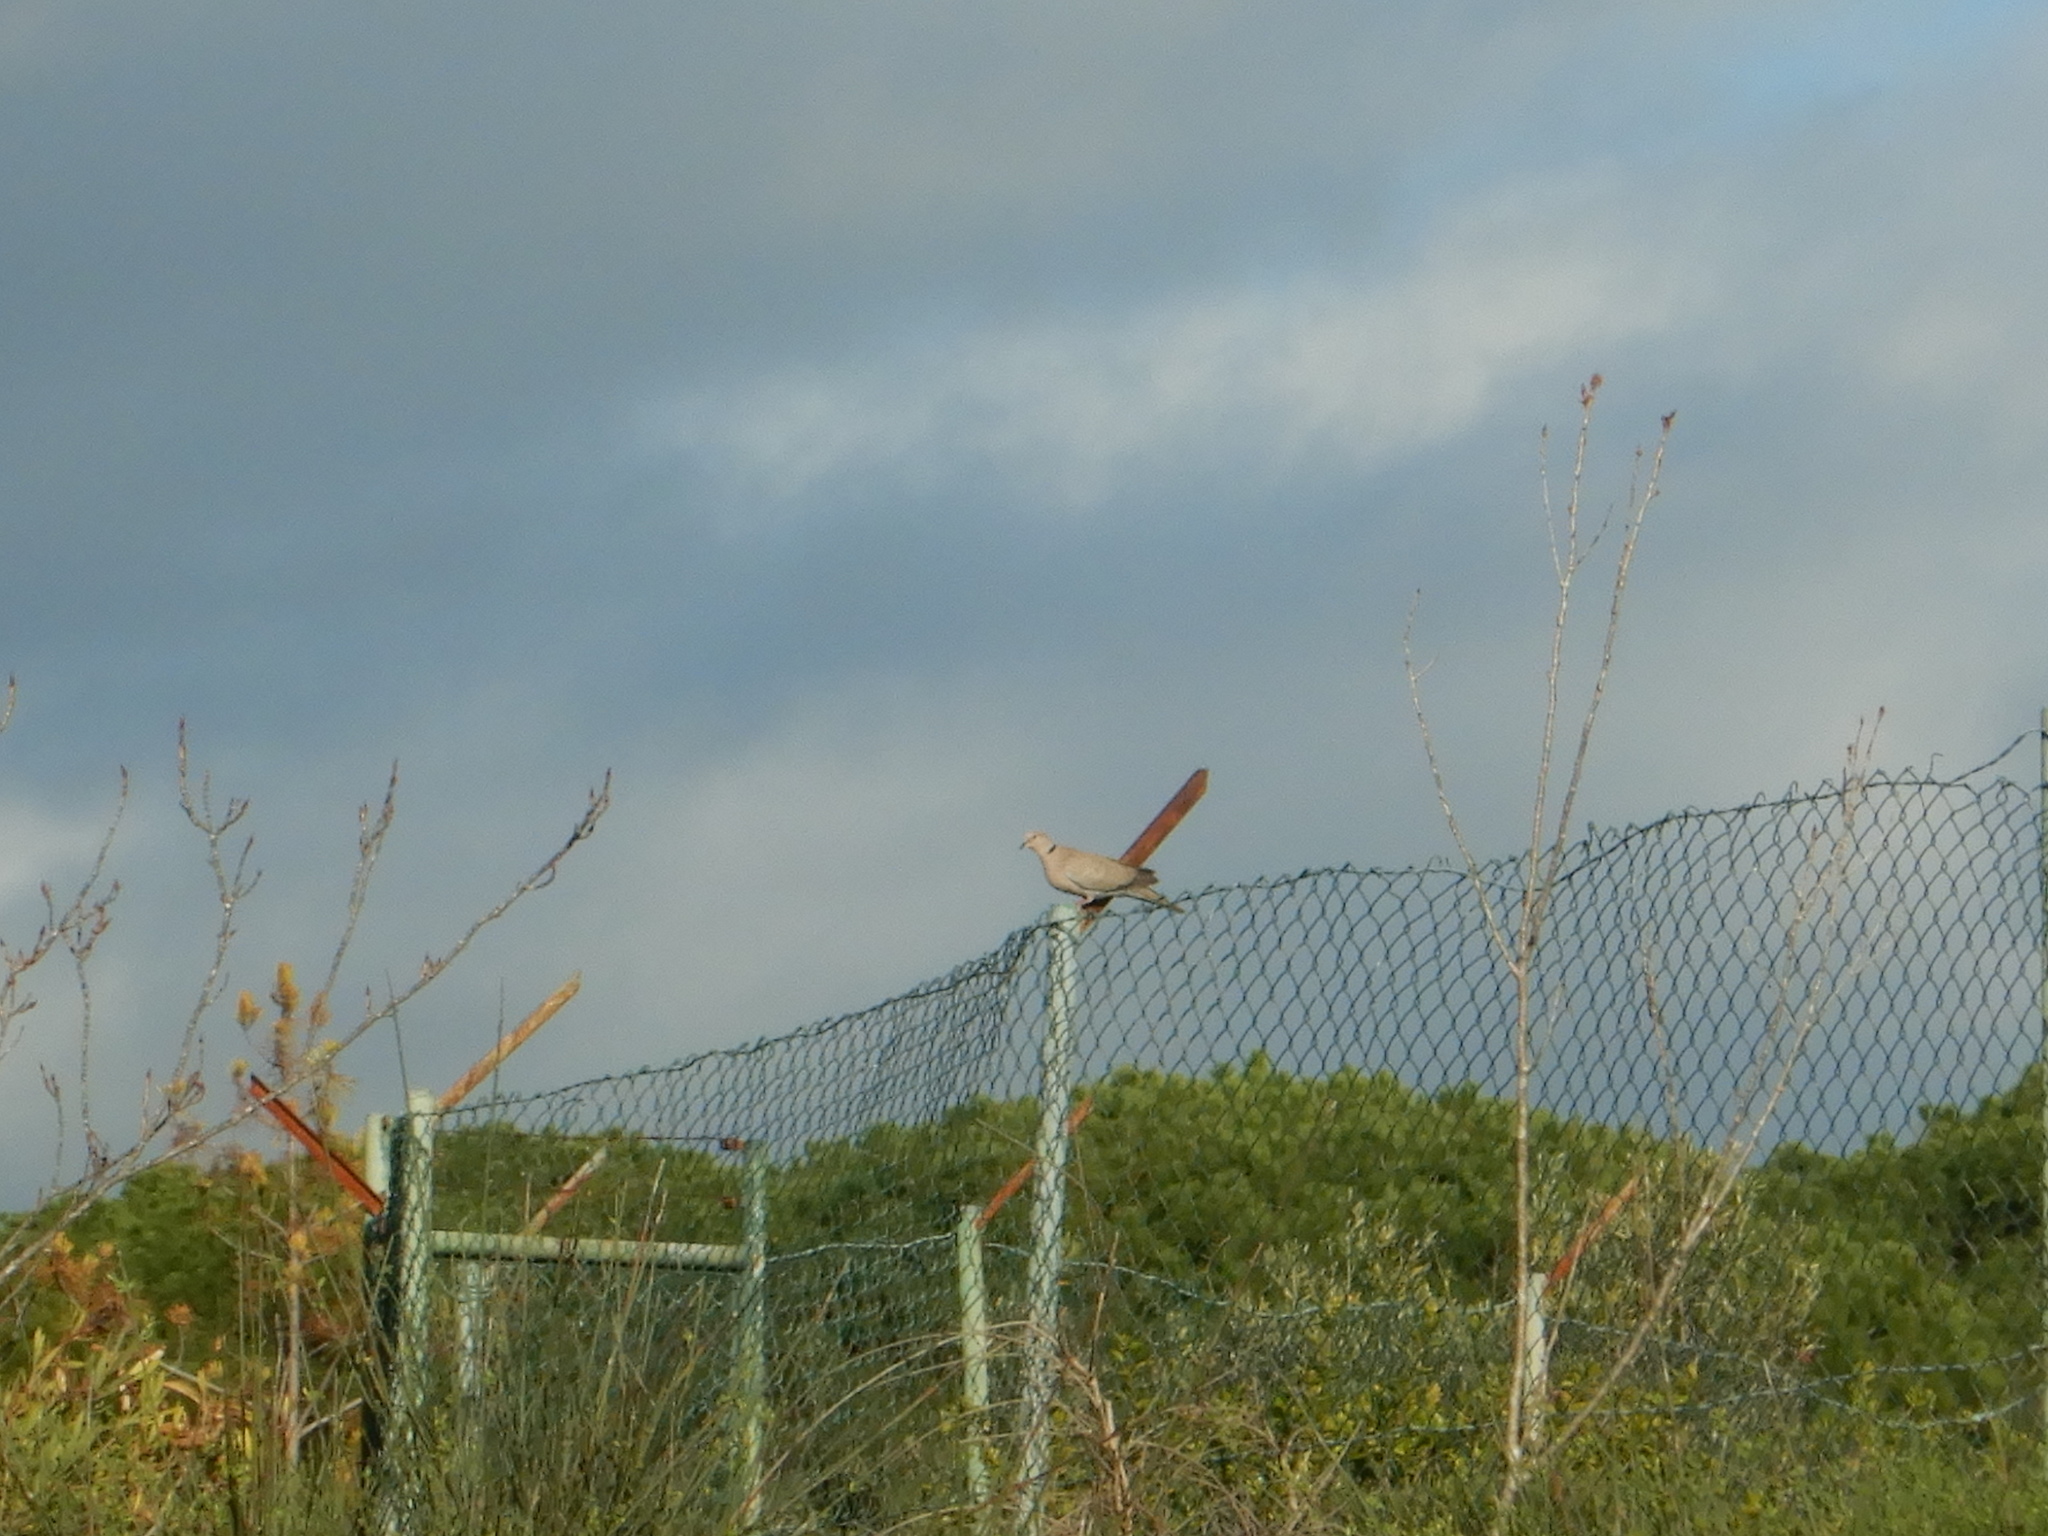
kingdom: Animalia
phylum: Chordata
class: Aves
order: Columbiformes
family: Columbidae
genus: Streptopelia
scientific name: Streptopelia decaocto
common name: Eurasian collared dove
